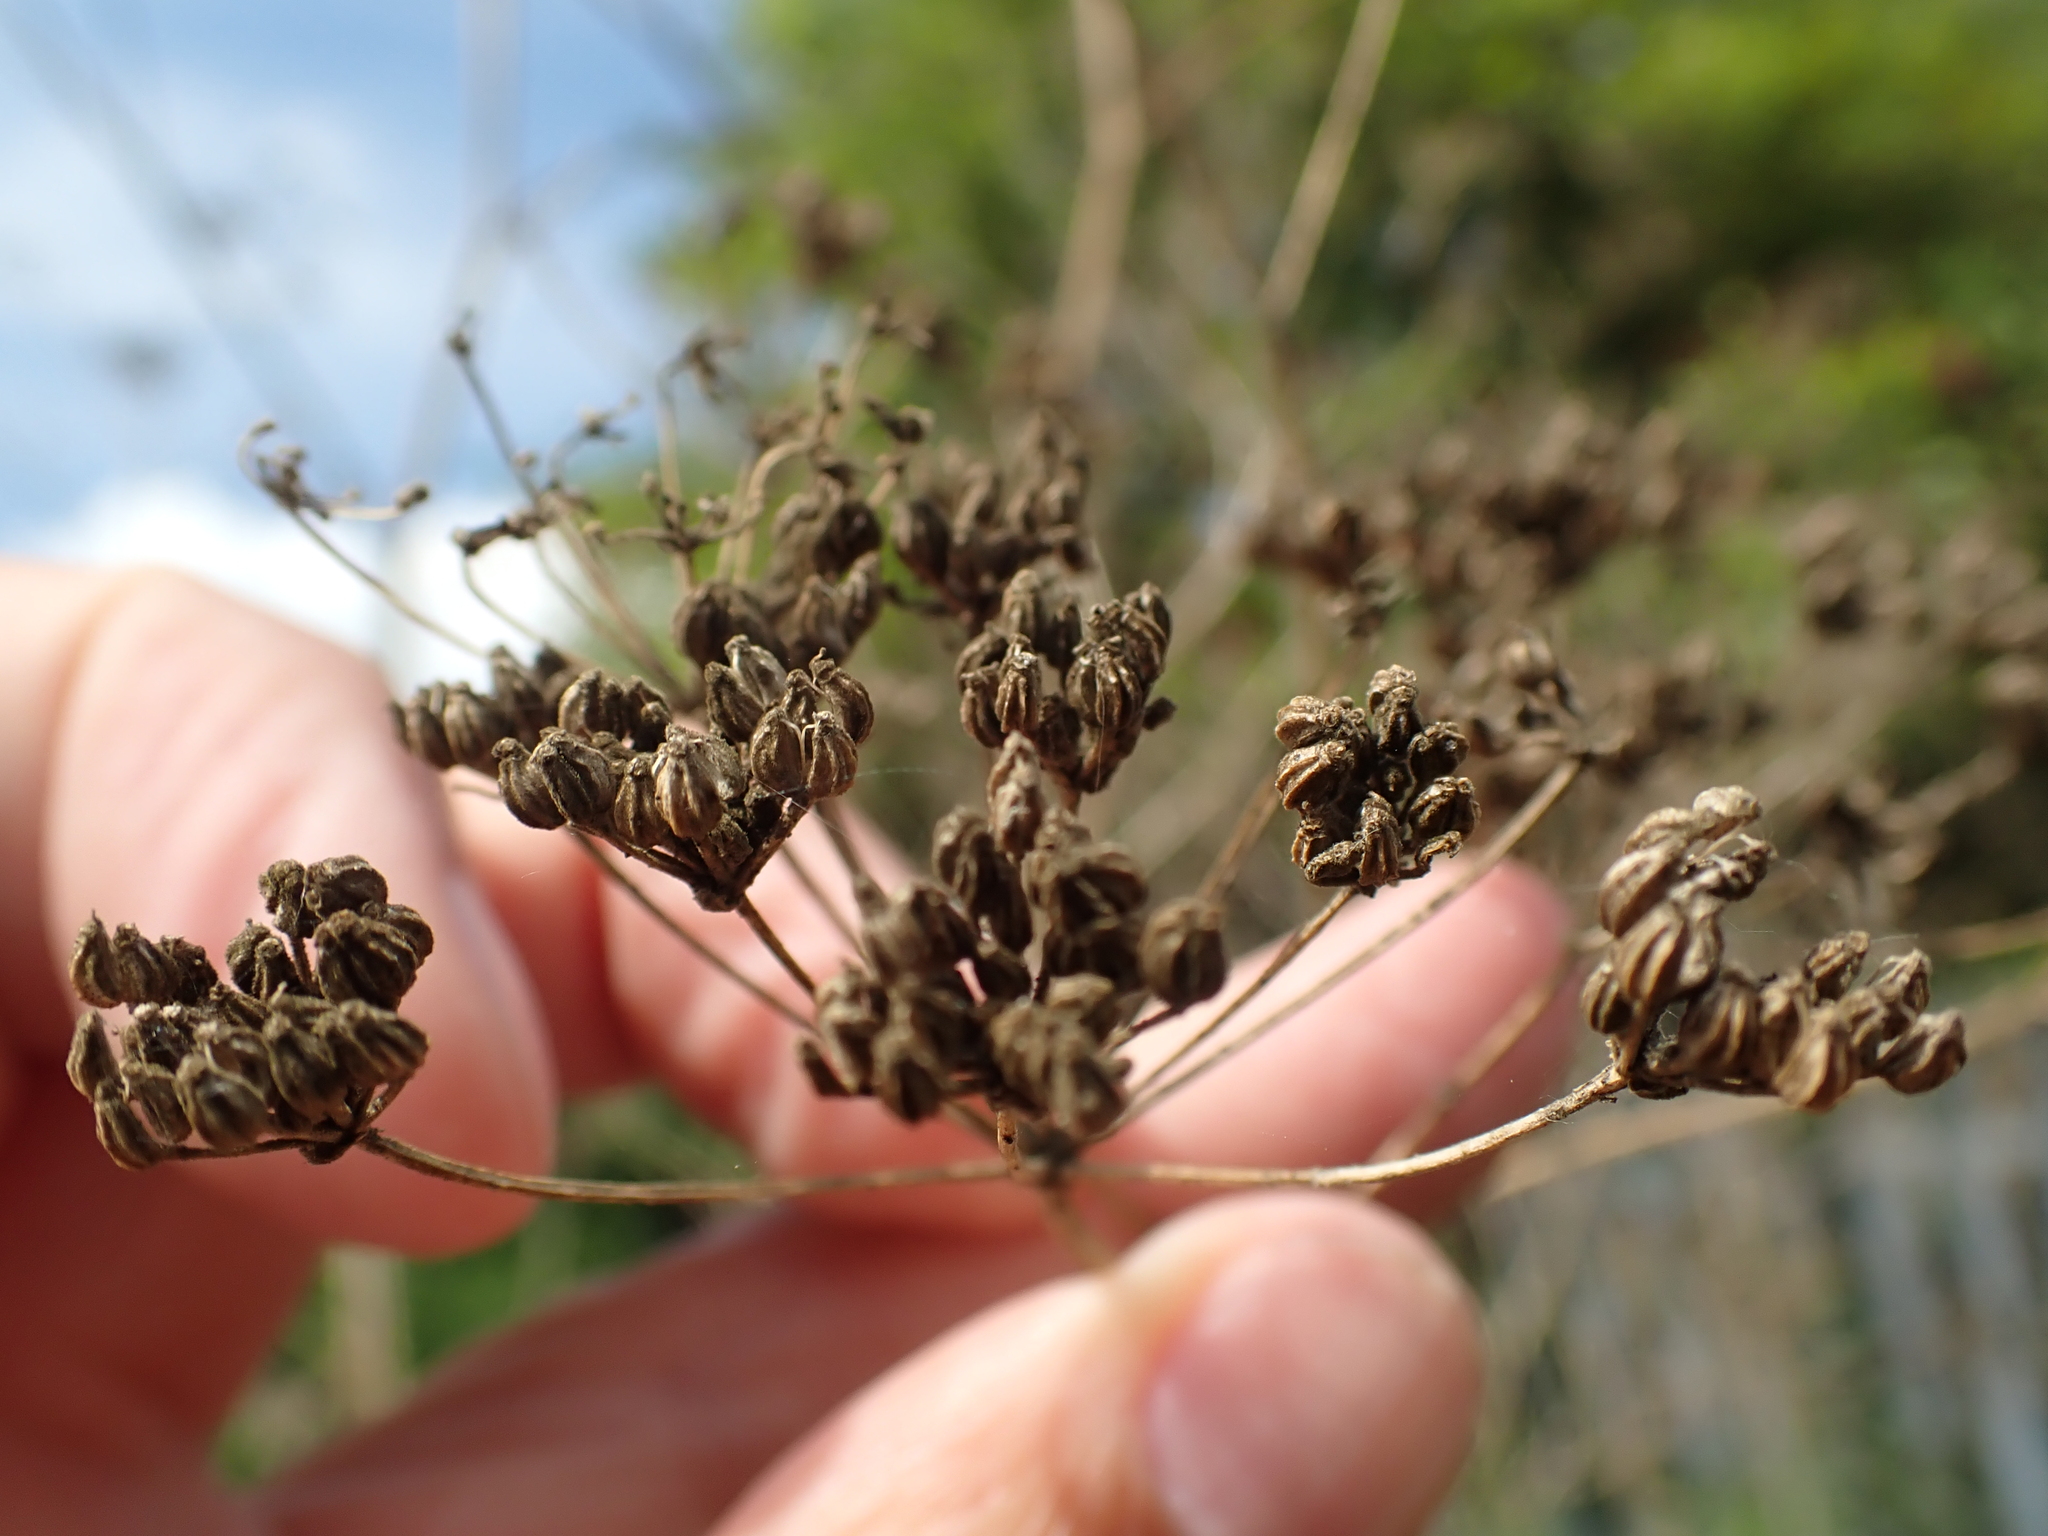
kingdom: Plantae
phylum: Tracheophyta
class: Magnoliopsida
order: Apiales
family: Apiaceae
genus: Conium
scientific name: Conium maculatum
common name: Hemlock
